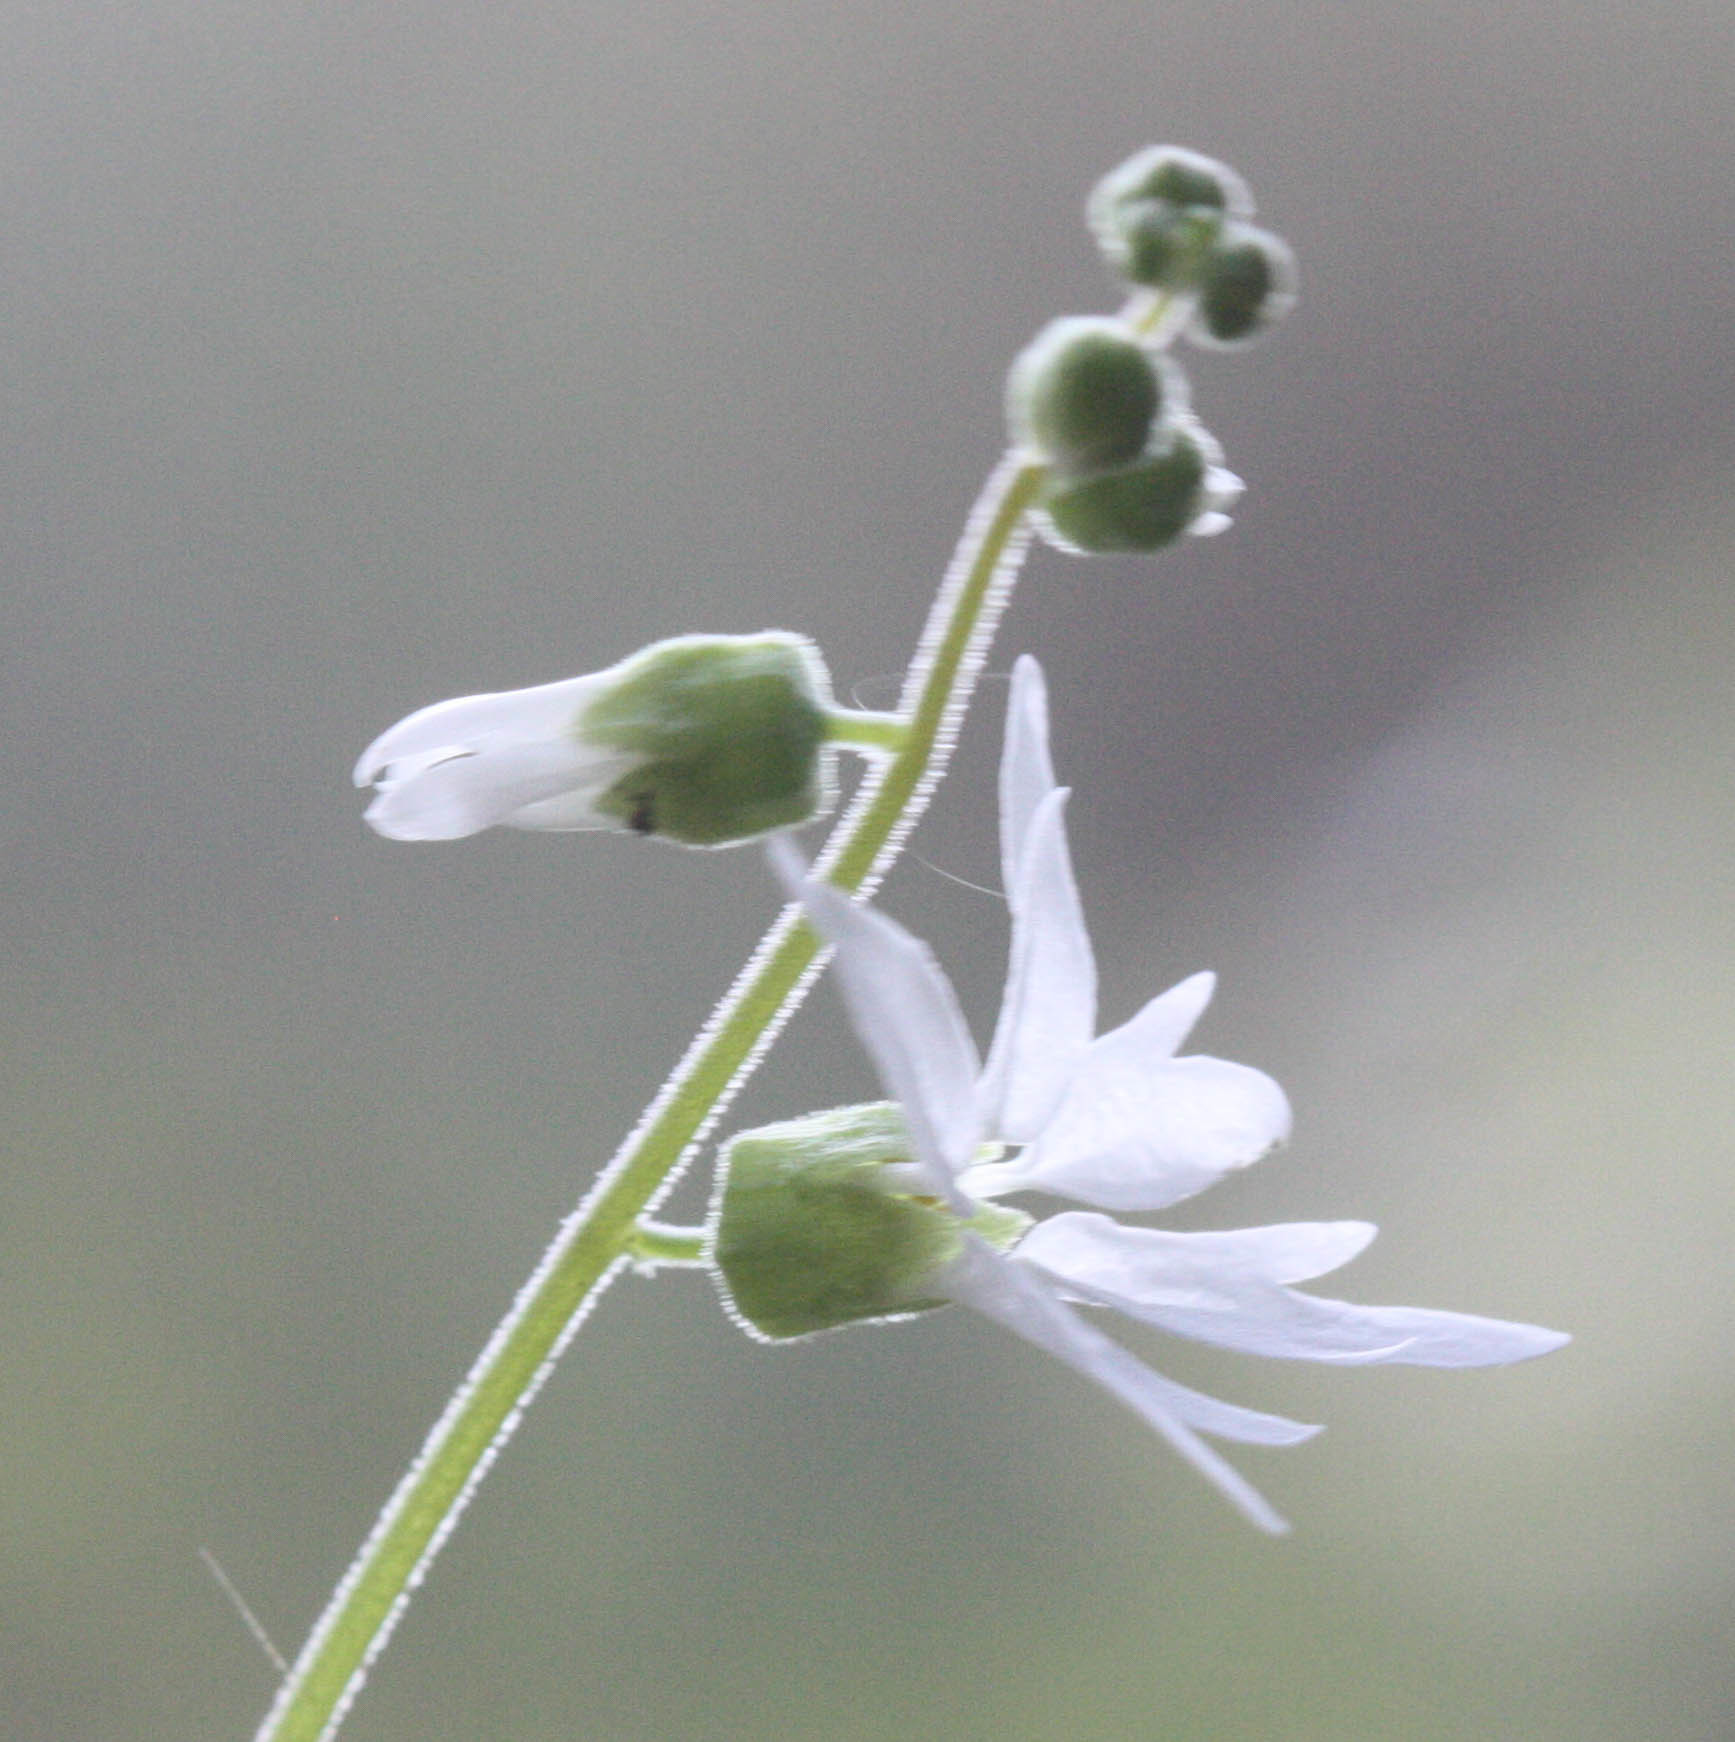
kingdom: Plantae
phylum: Tracheophyta
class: Magnoliopsida
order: Saxifragales
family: Saxifragaceae
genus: Lithophragma
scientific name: Lithophragma heterophyllum
